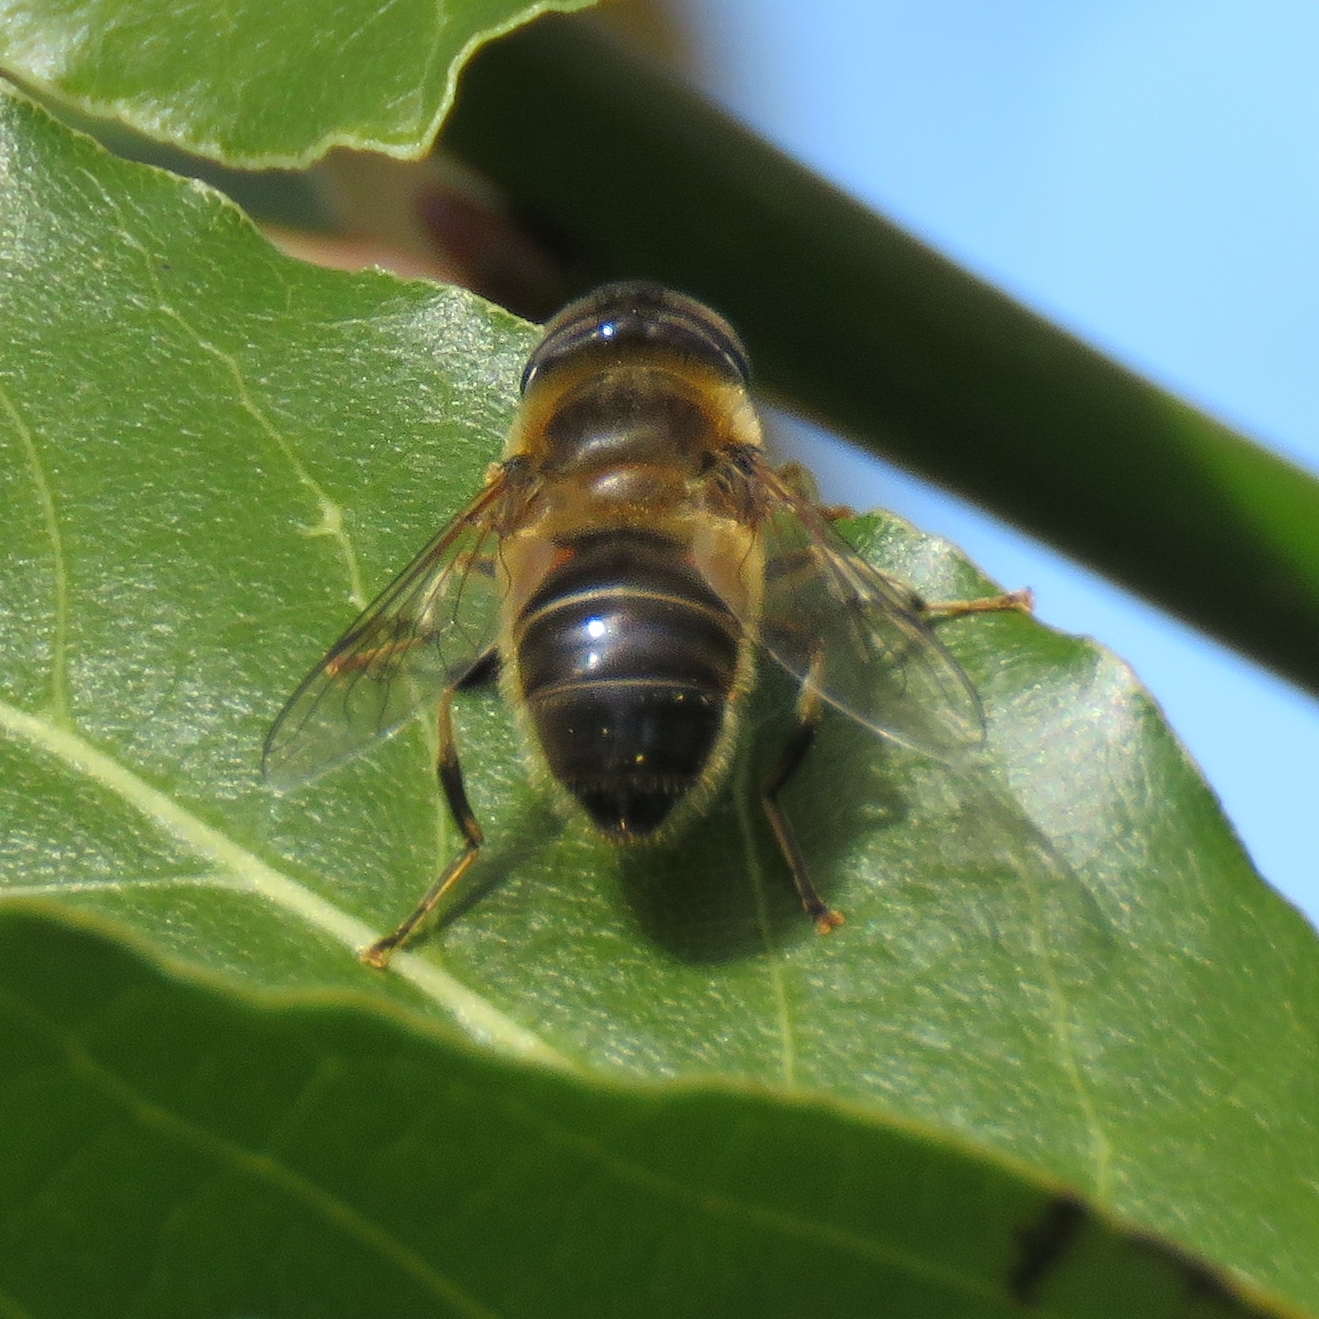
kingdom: Animalia
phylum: Arthropoda
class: Insecta
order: Diptera
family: Syrphidae
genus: Eristalis
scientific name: Eristalis pertinax
